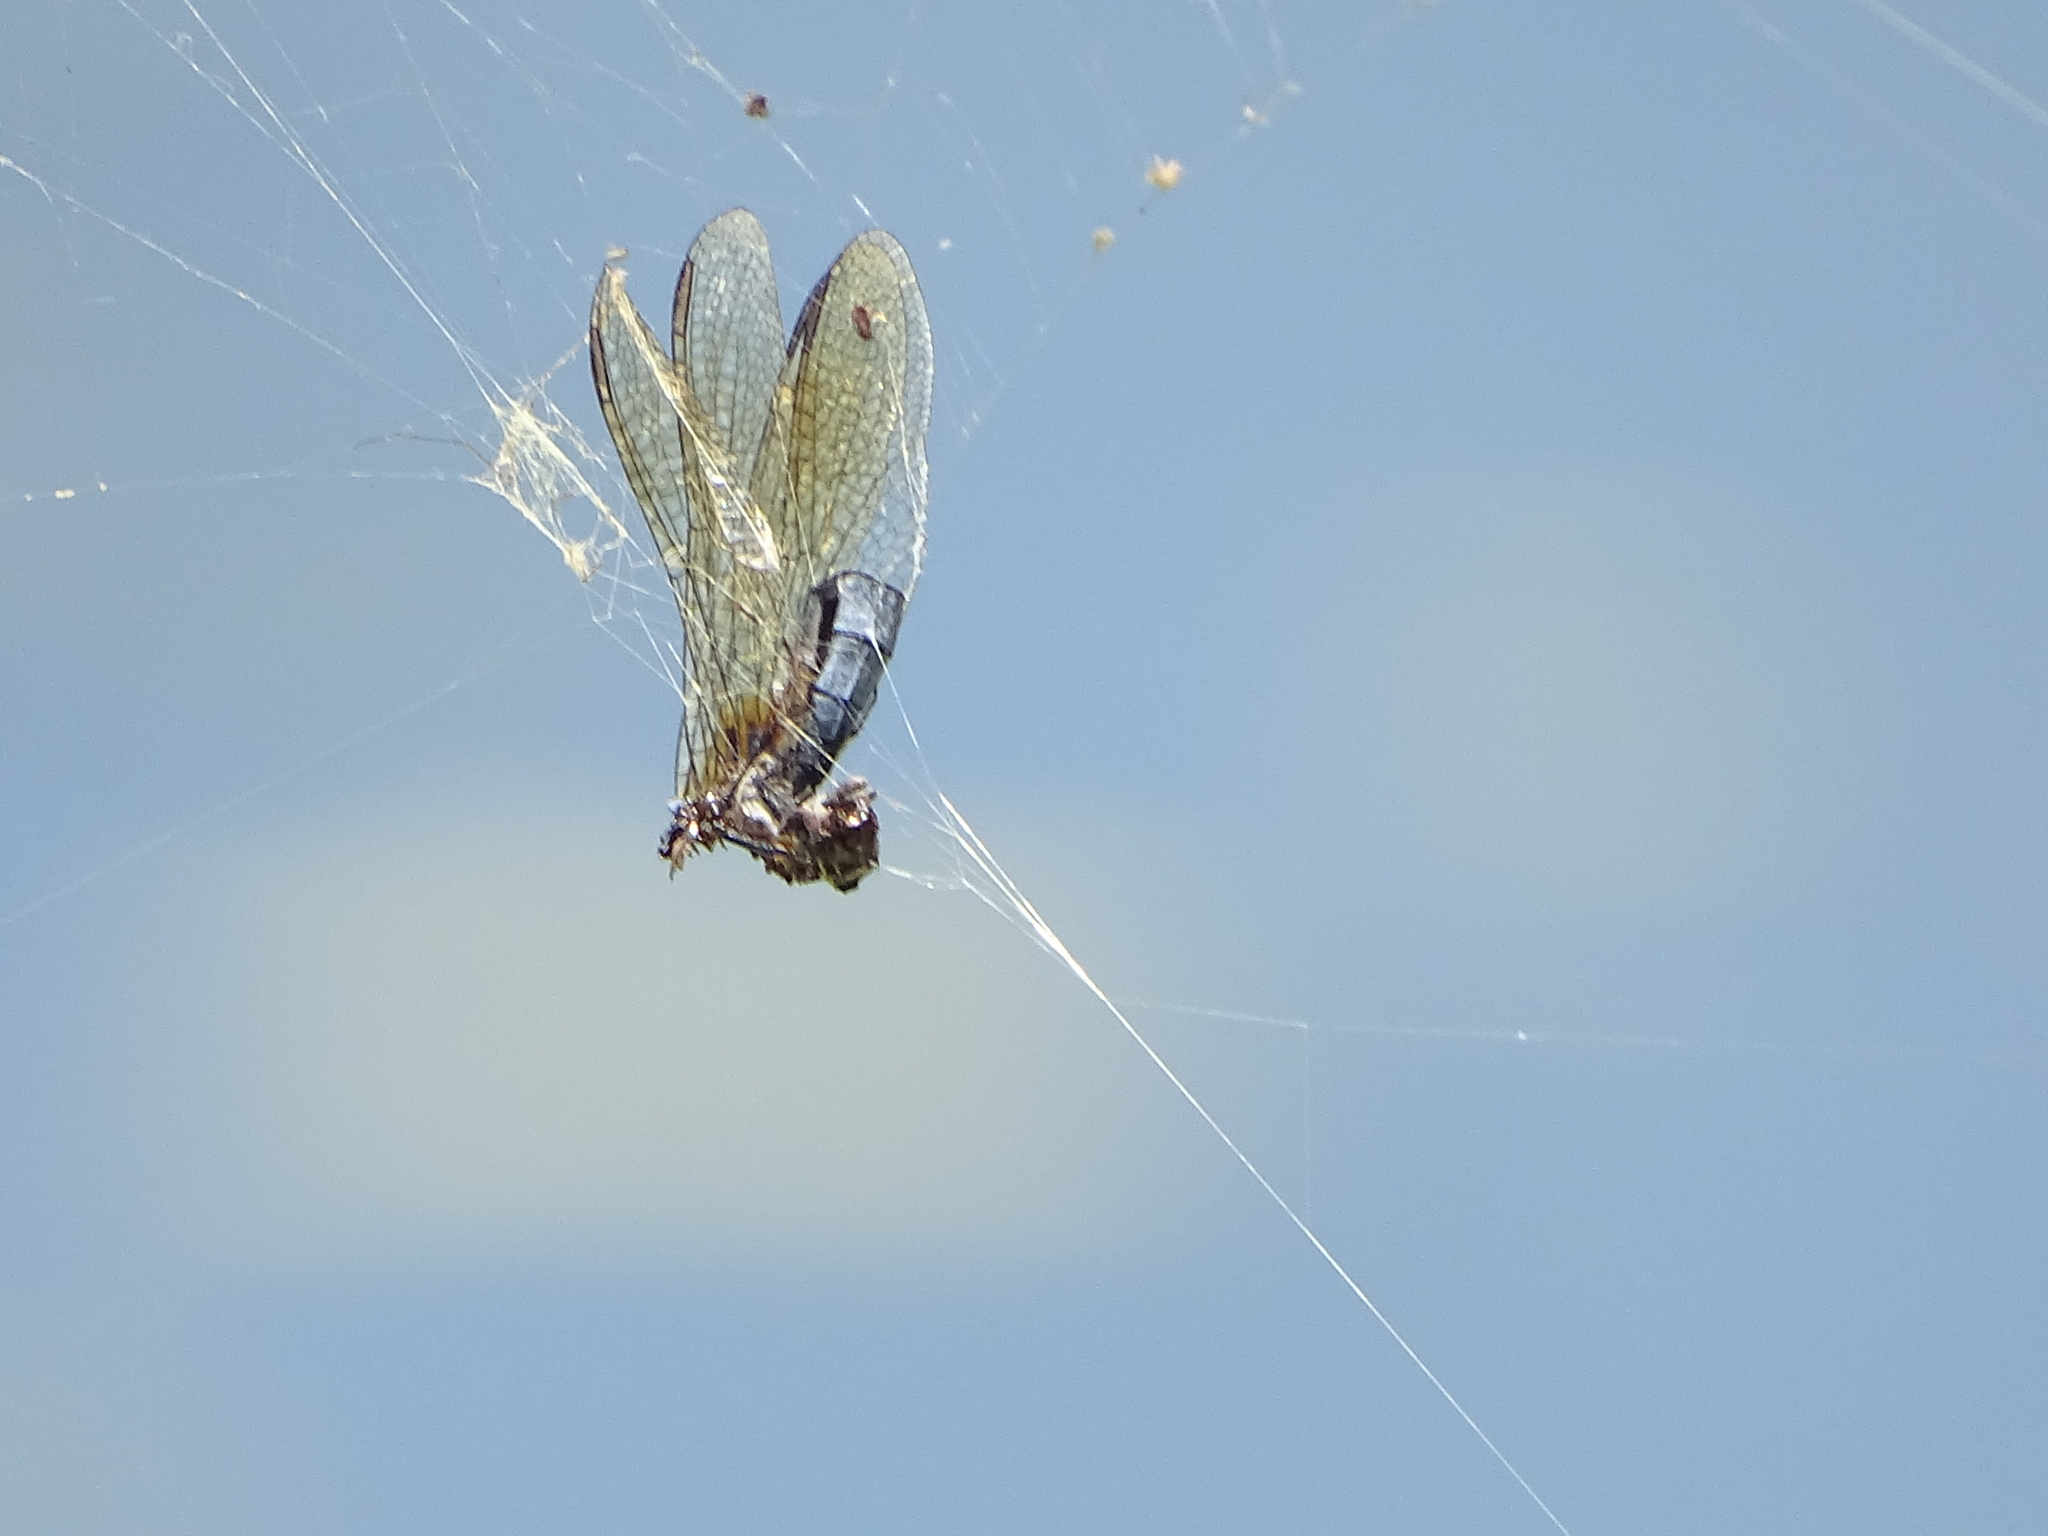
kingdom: Animalia
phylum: Arthropoda
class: Insecta
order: Odonata
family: Libellulidae
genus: Pachydiplax
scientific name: Pachydiplax longipennis
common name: Blue dasher
